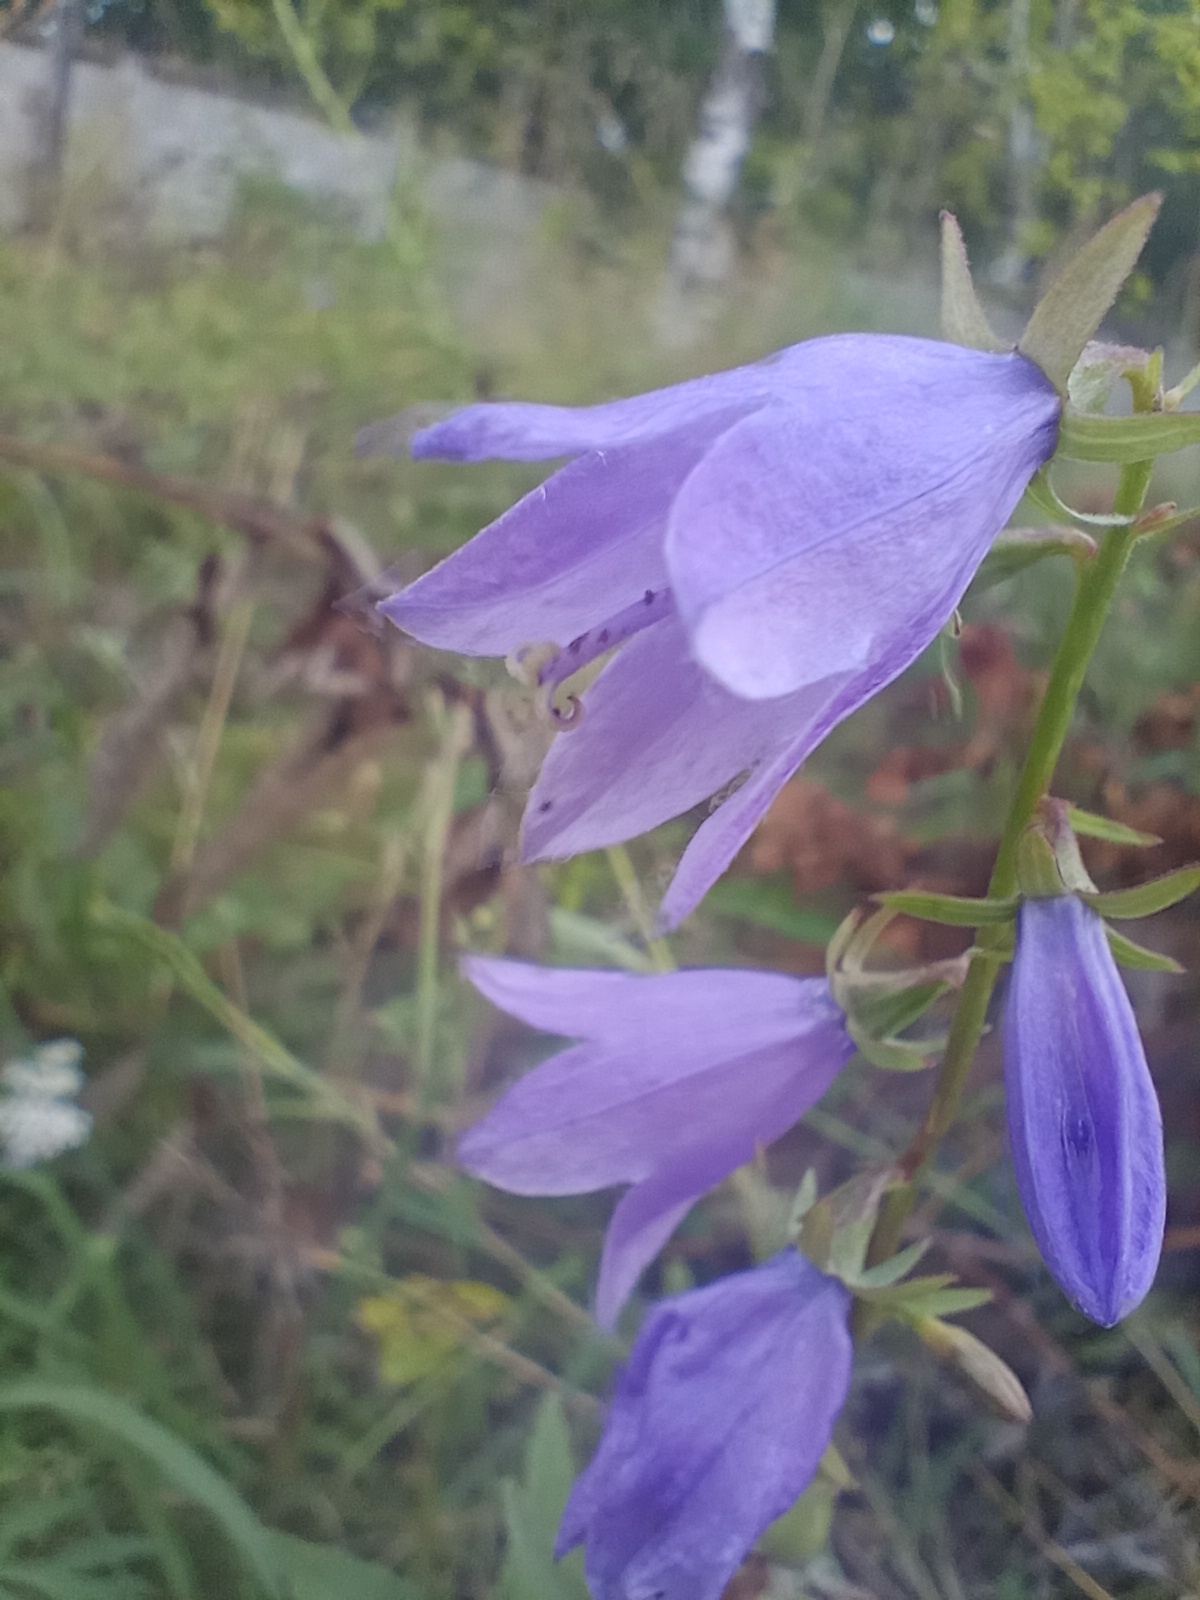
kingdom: Plantae
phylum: Tracheophyta
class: Magnoliopsida
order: Asterales
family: Campanulaceae
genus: Campanula
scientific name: Campanula rapunculoides
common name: Creeping bellflower
